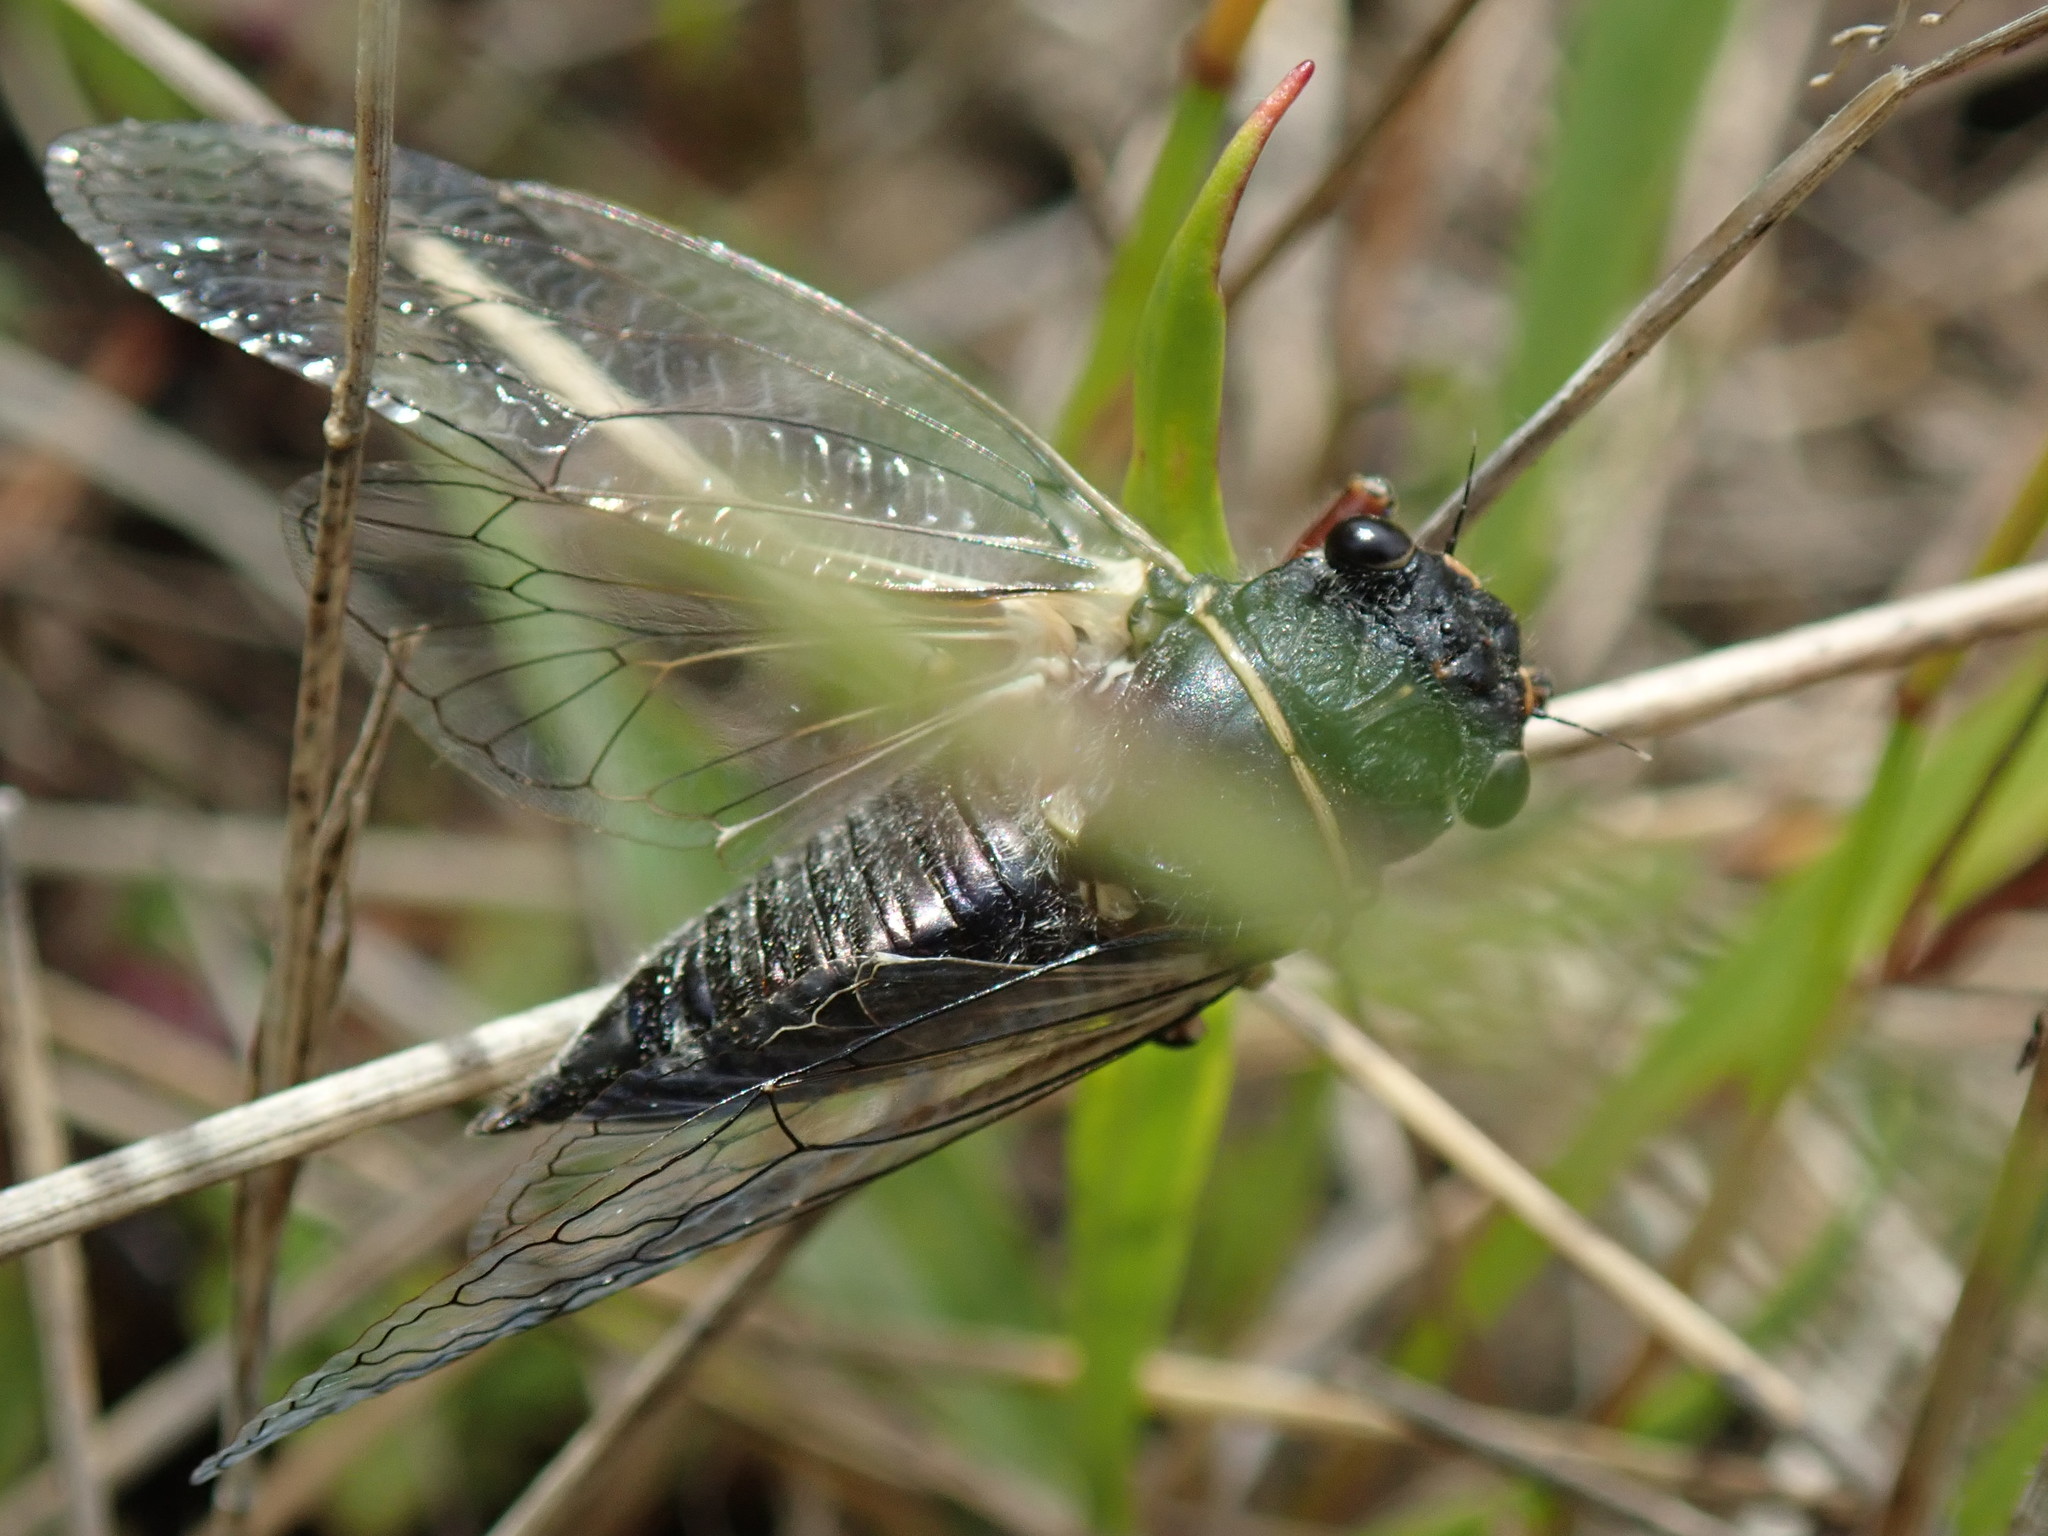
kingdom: Animalia
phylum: Arthropoda
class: Insecta
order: Hemiptera
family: Cicadidae
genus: Platypedia
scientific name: Platypedia areolata
